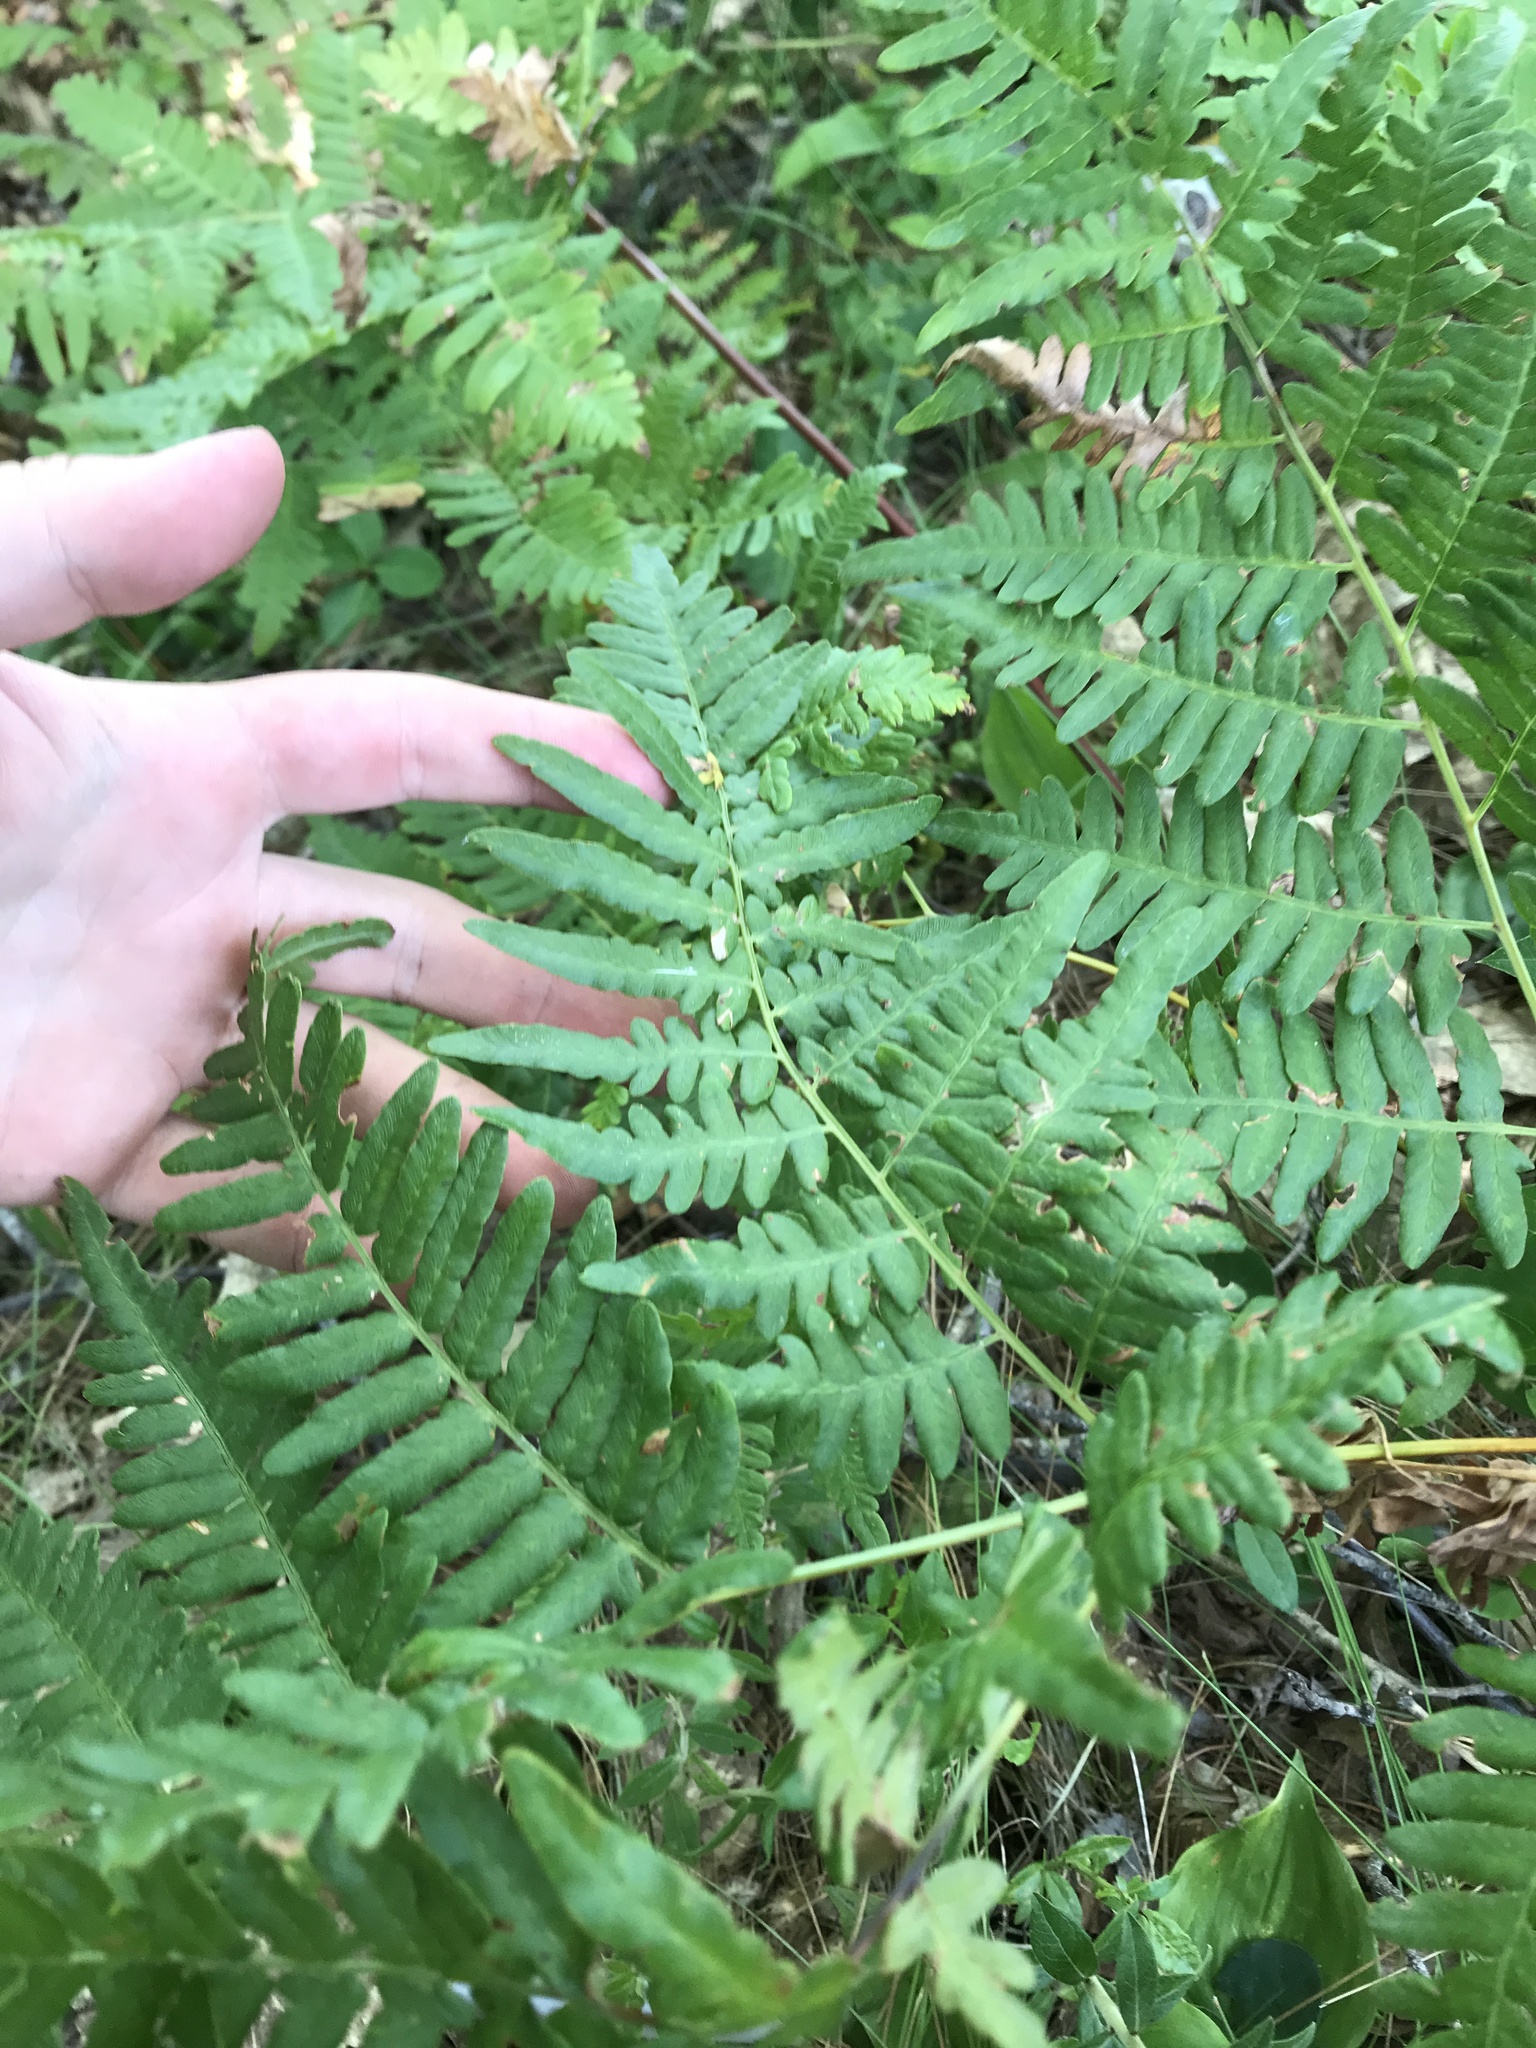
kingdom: Plantae
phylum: Tracheophyta
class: Polypodiopsida
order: Polypodiales
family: Dennstaedtiaceae
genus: Pteridium
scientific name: Pteridium aquilinum
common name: Bracken
